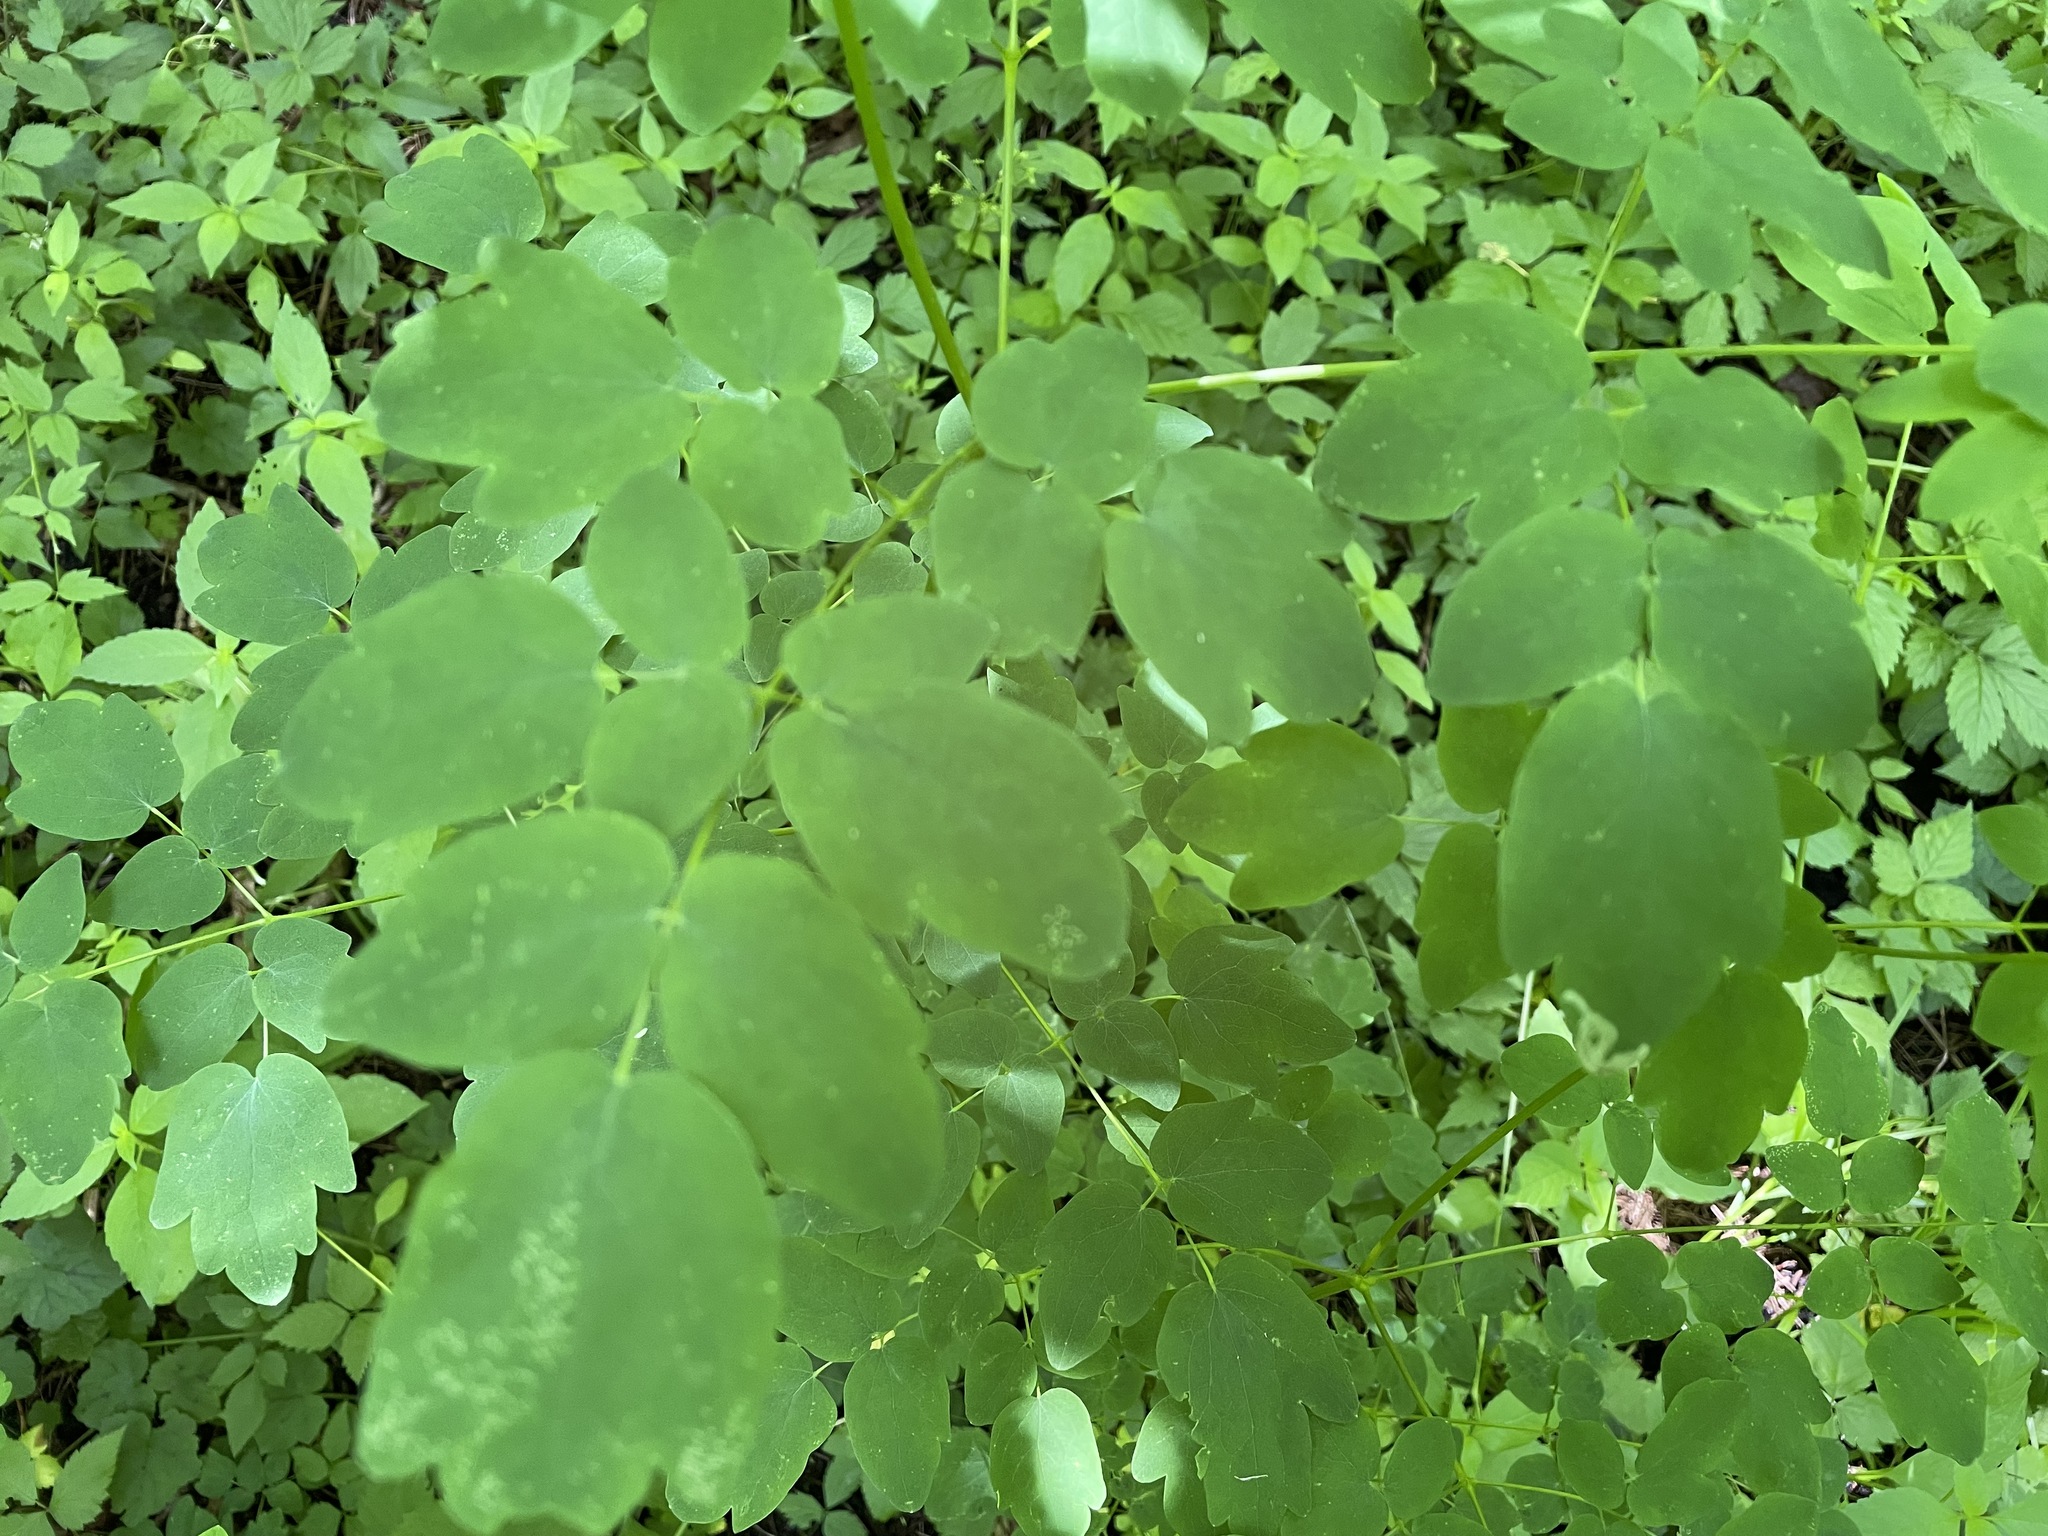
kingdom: Plantae
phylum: Tracheophyta
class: Magnoliopsida
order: Ranunculales
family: Ranunculaceae
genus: Thalictrum
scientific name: Thalictrum pubescens
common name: King-of-the-meadow
